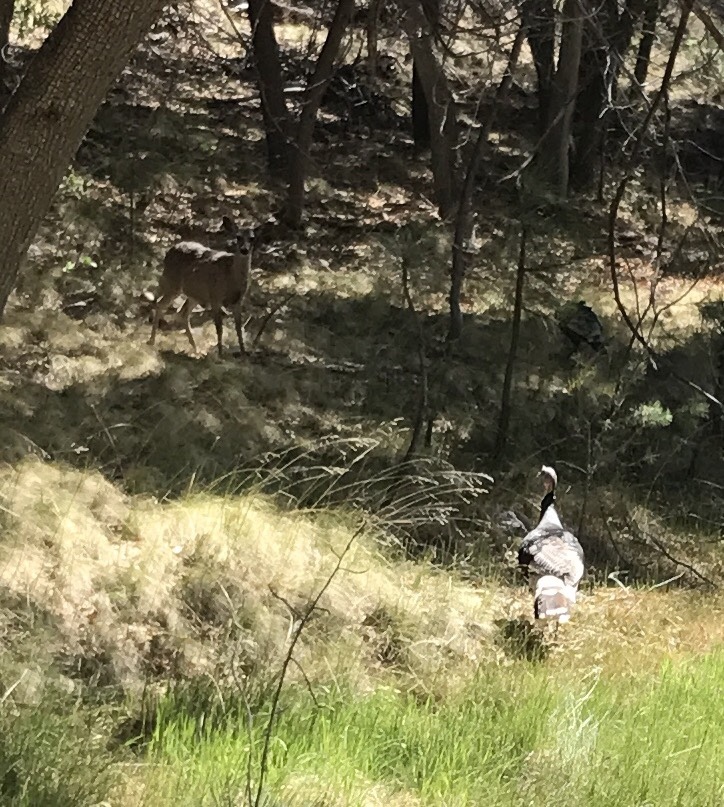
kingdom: Animalia
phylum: Chordata
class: Mammalia
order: Artiodactyla
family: Cervidae
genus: Odocoileus
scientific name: Odocoileus virginianus
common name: White-tailed deer
